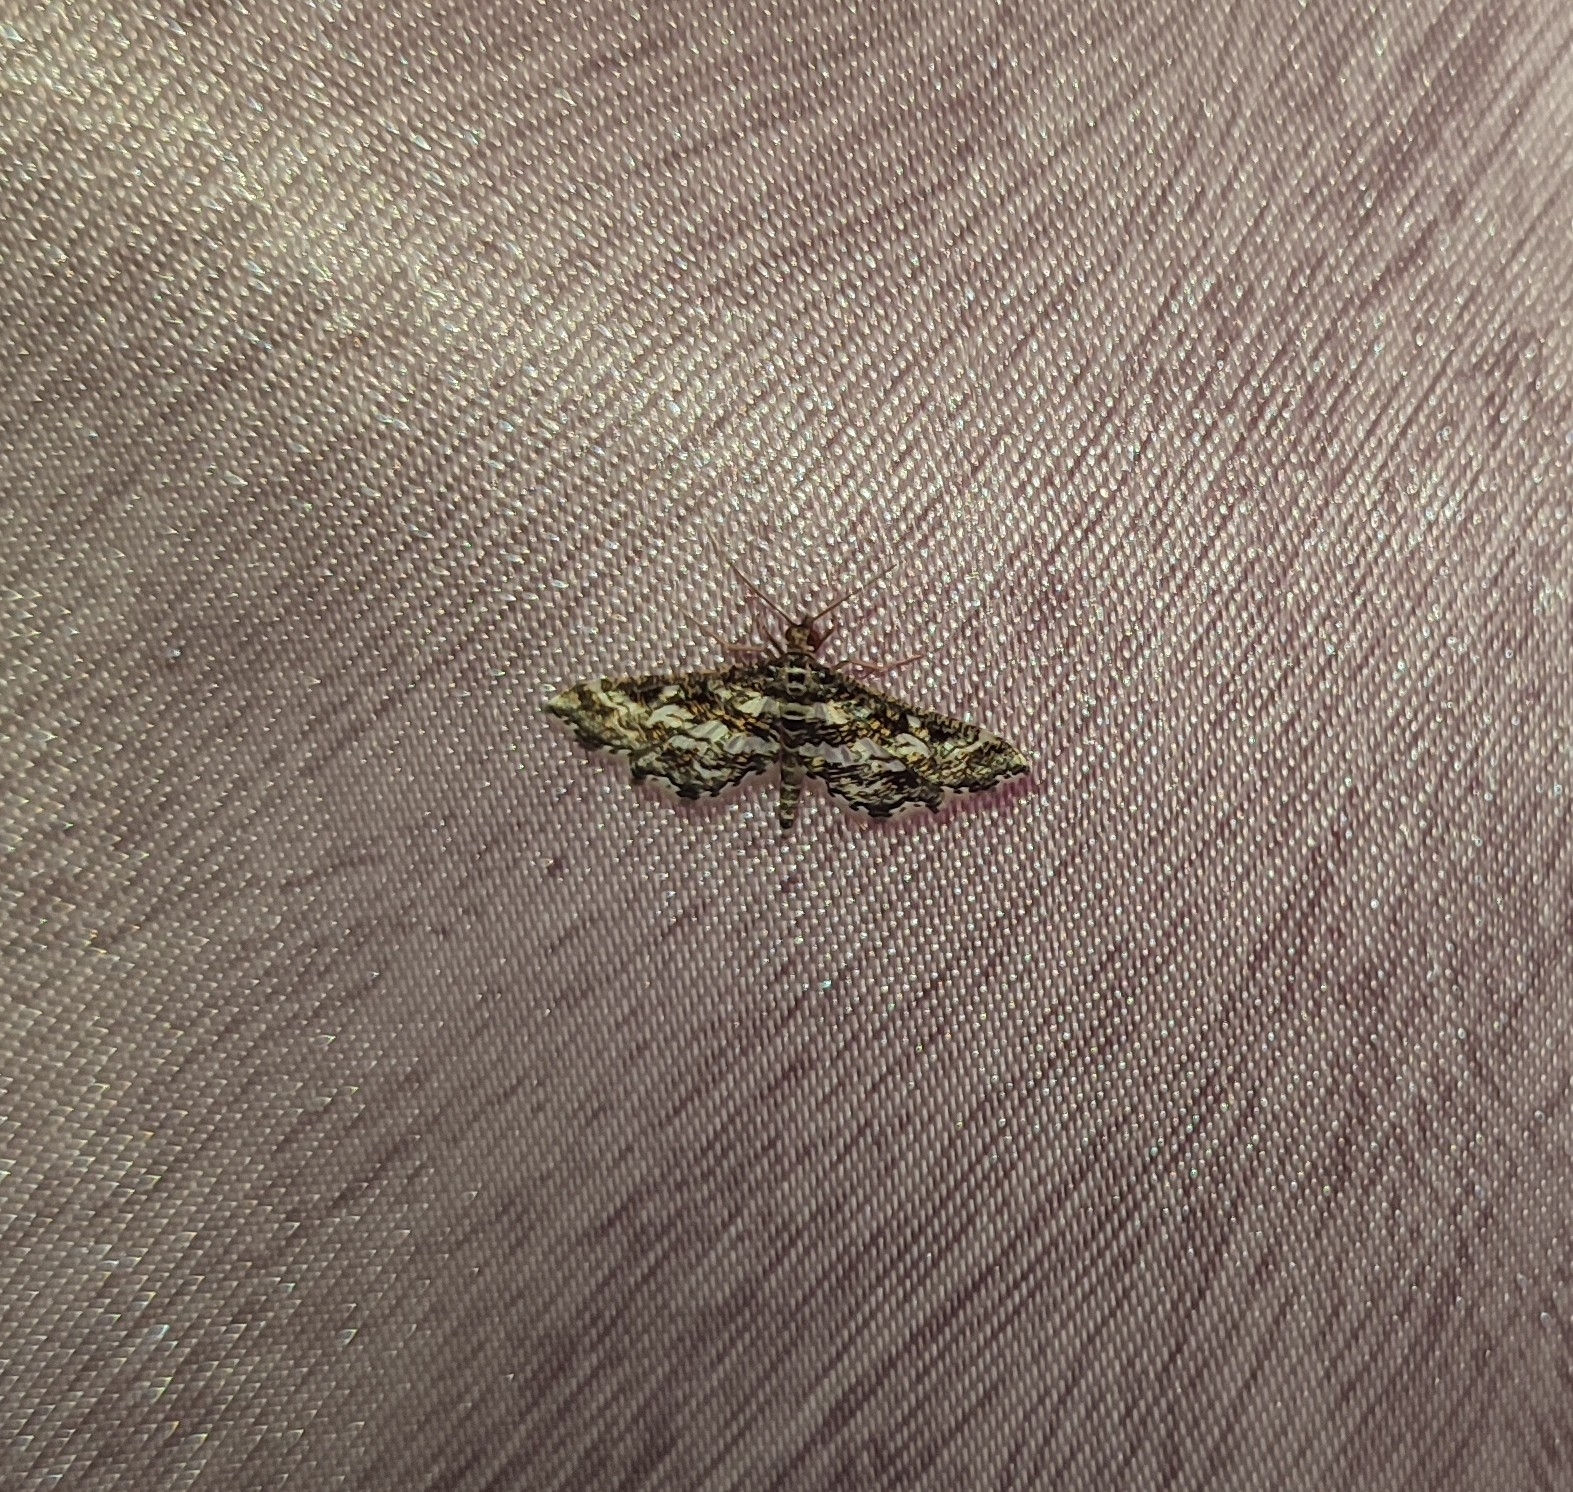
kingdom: Animalia
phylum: Arthropoda
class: Insecta
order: Lepidoptera
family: Crambidae
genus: Diasemiopsis
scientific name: Diasemiopsis ramburialis
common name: Vagrant china-mark
